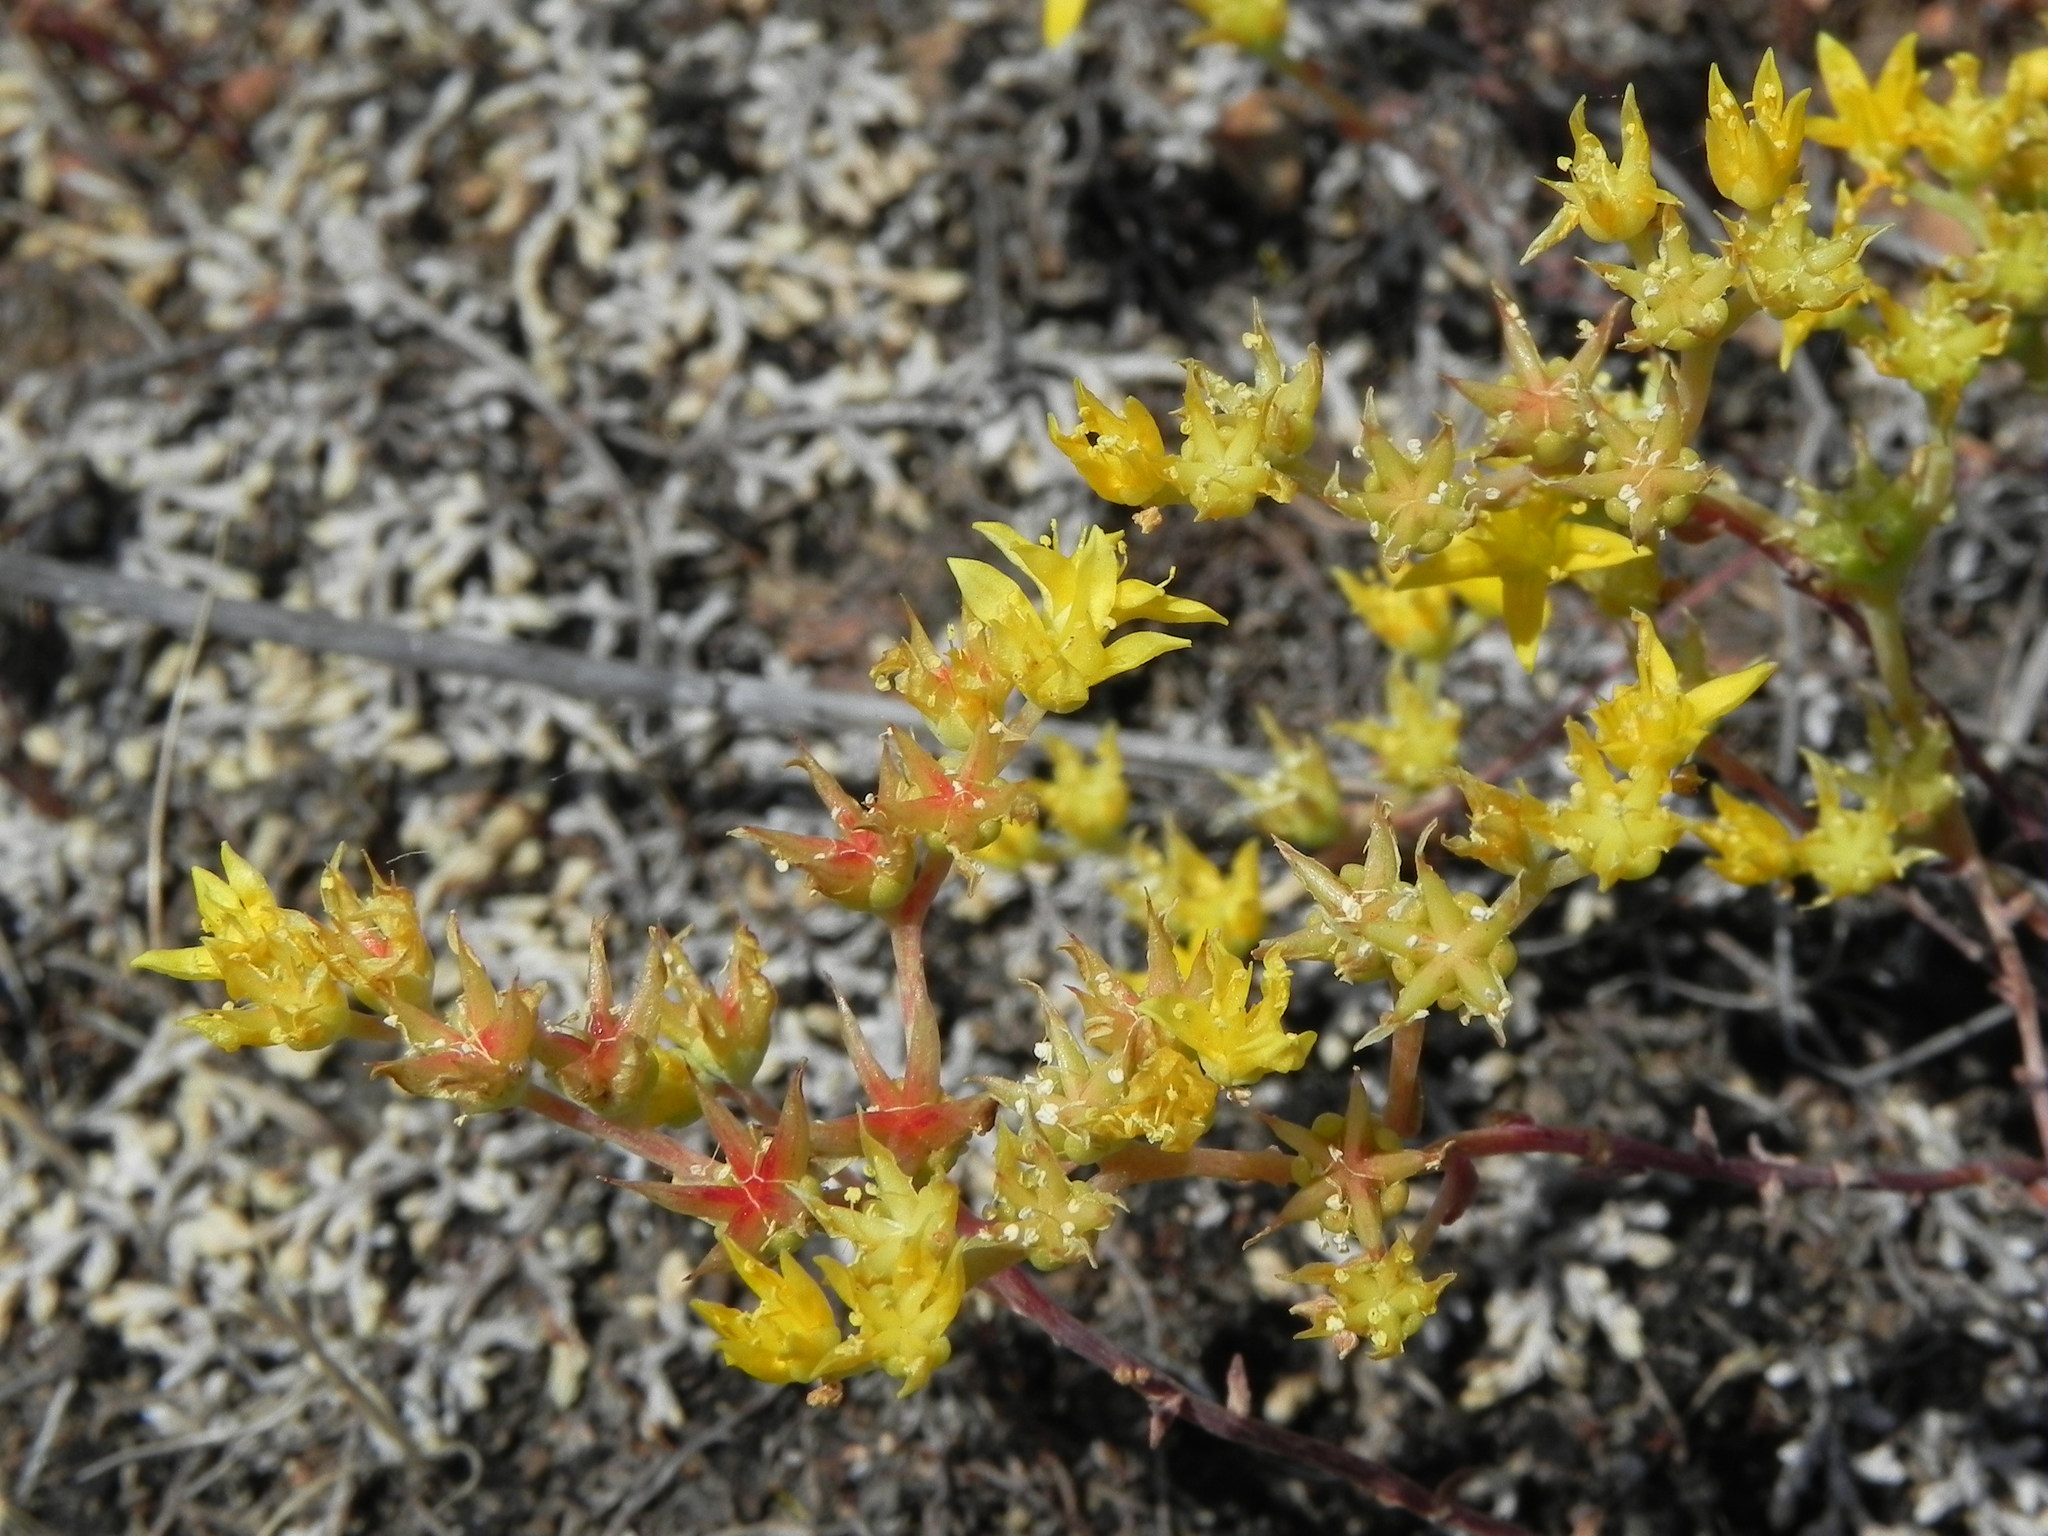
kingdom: Plantae
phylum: Tracheophyta
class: Magnoliopsida
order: Saxifragales
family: Crassulaceae
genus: Dudleya
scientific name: Dudleya variegata
